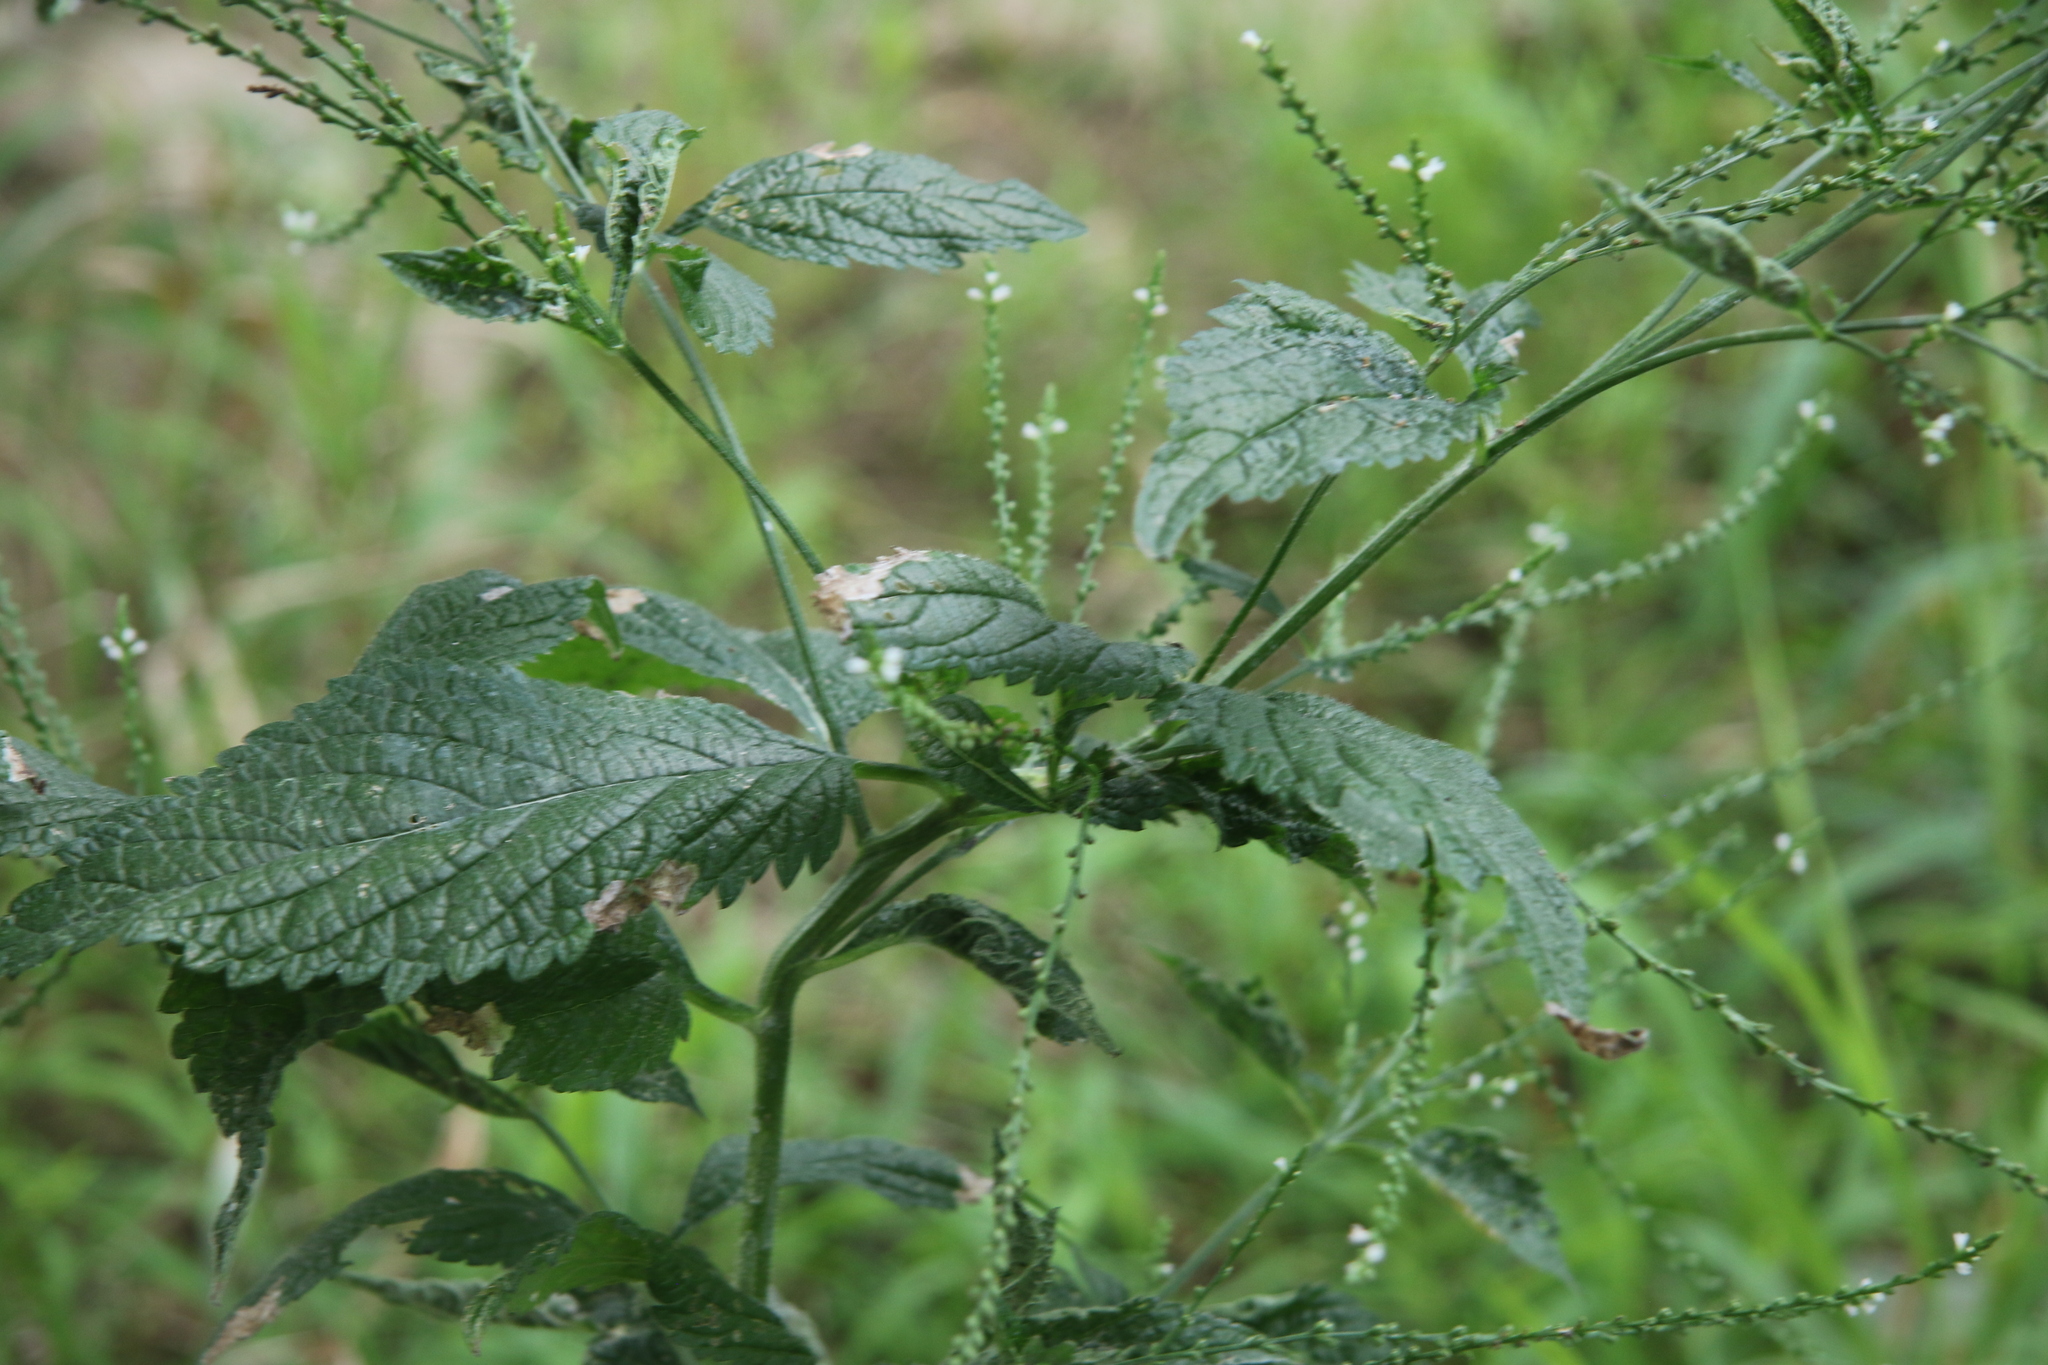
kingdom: Plantae
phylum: Tracheophyta
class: Magnoliopsida
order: Lamiales
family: Verbenaceae
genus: Verbena
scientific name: Verbena urticifolia
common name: Nettle-leaved vervain
